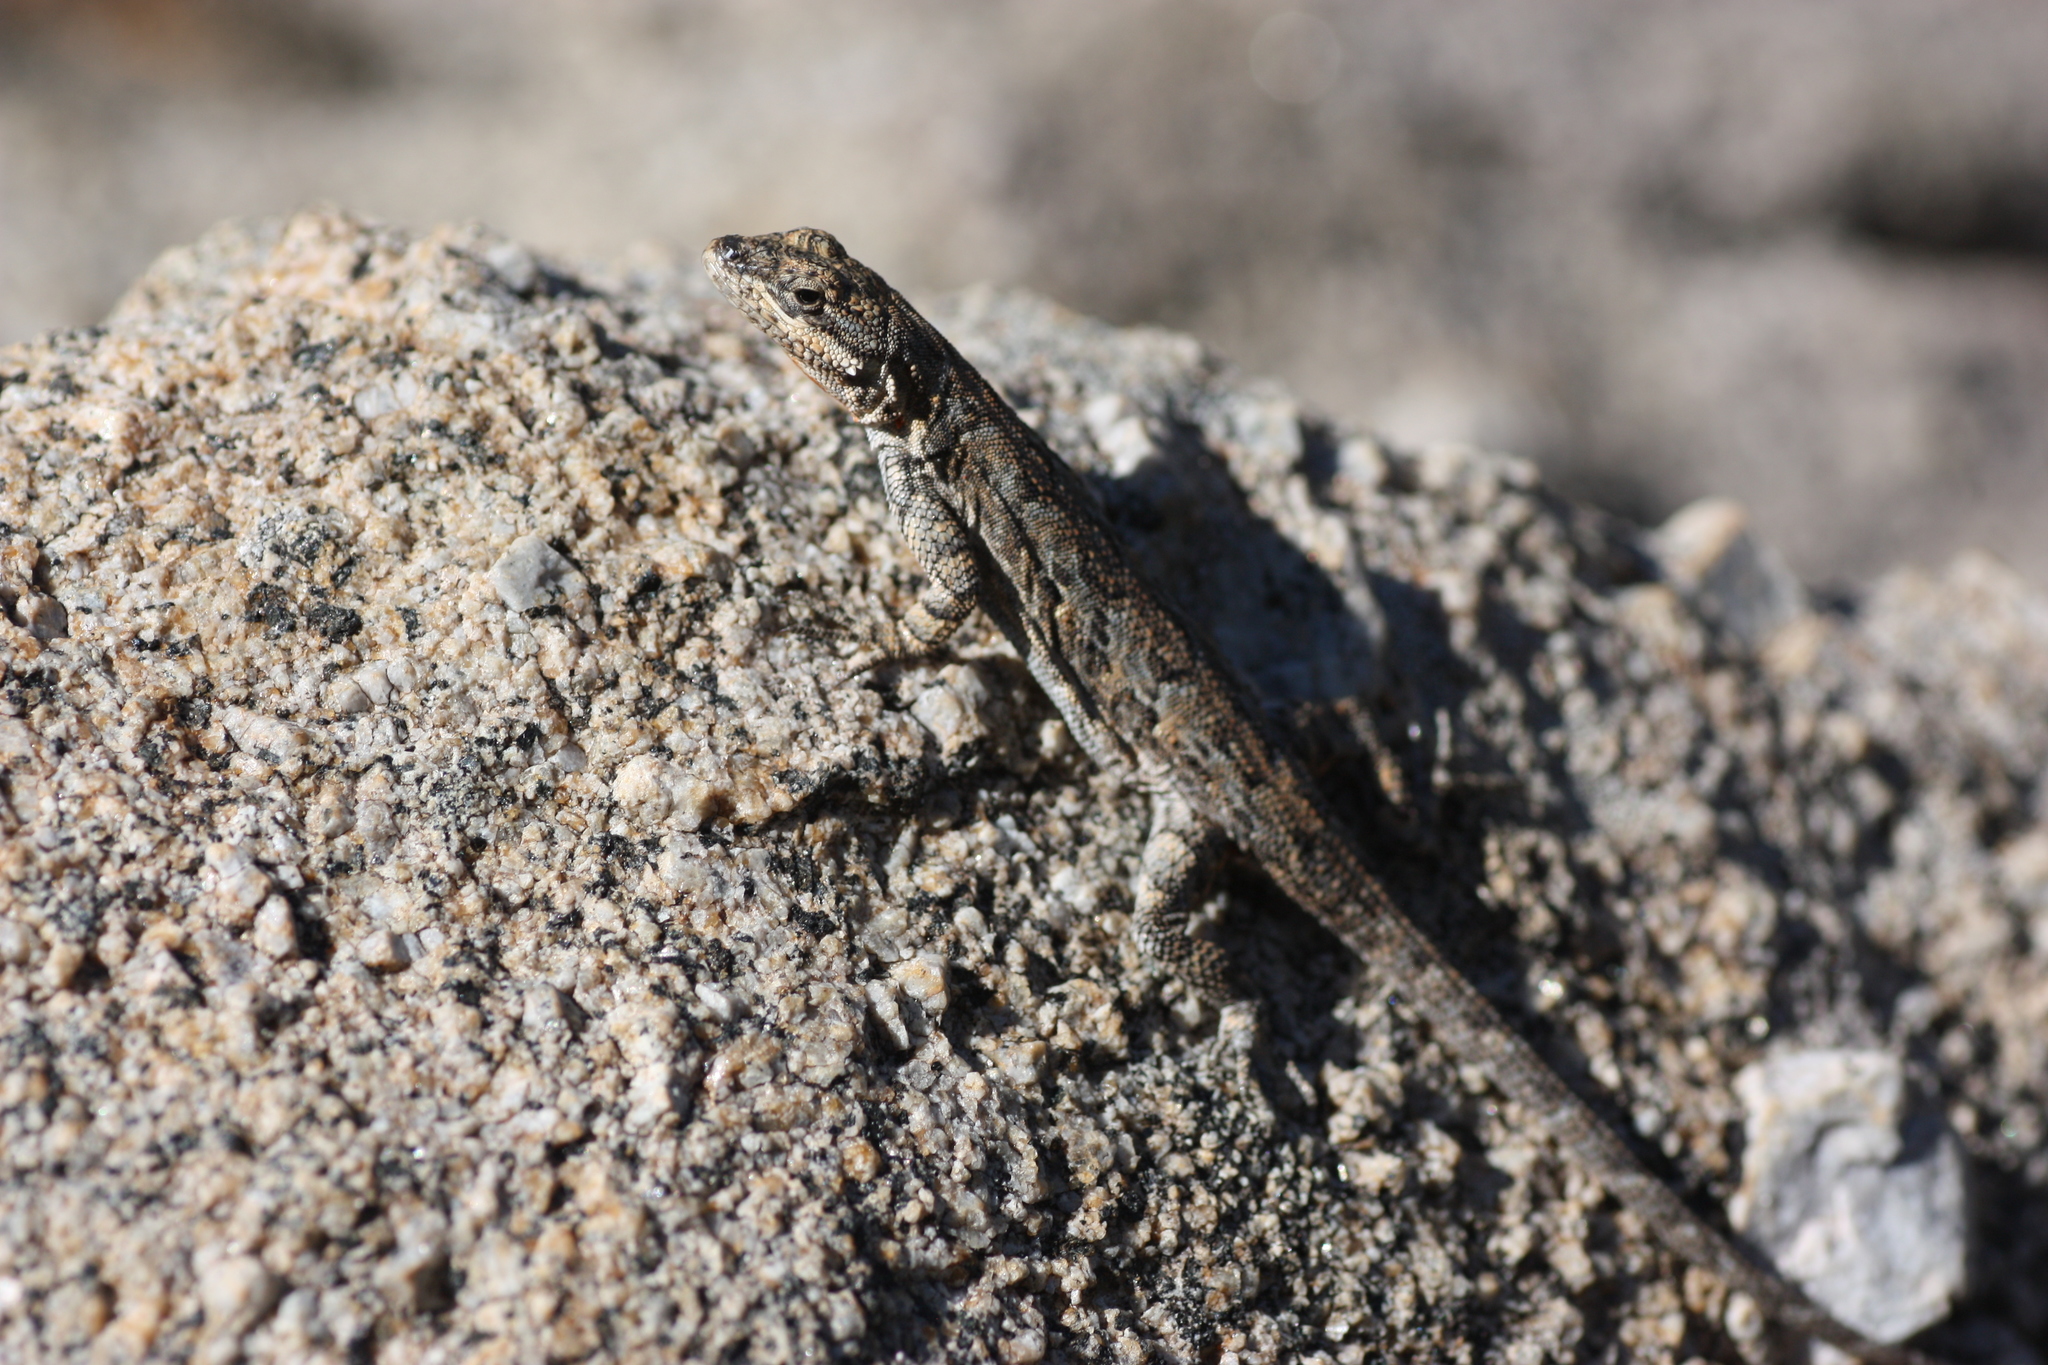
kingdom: Animalia
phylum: Chordata
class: Squamata
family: Phrynosomatidae
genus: Urosaurus
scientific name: Urosaurus ornatus
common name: Ornate tree lizard
